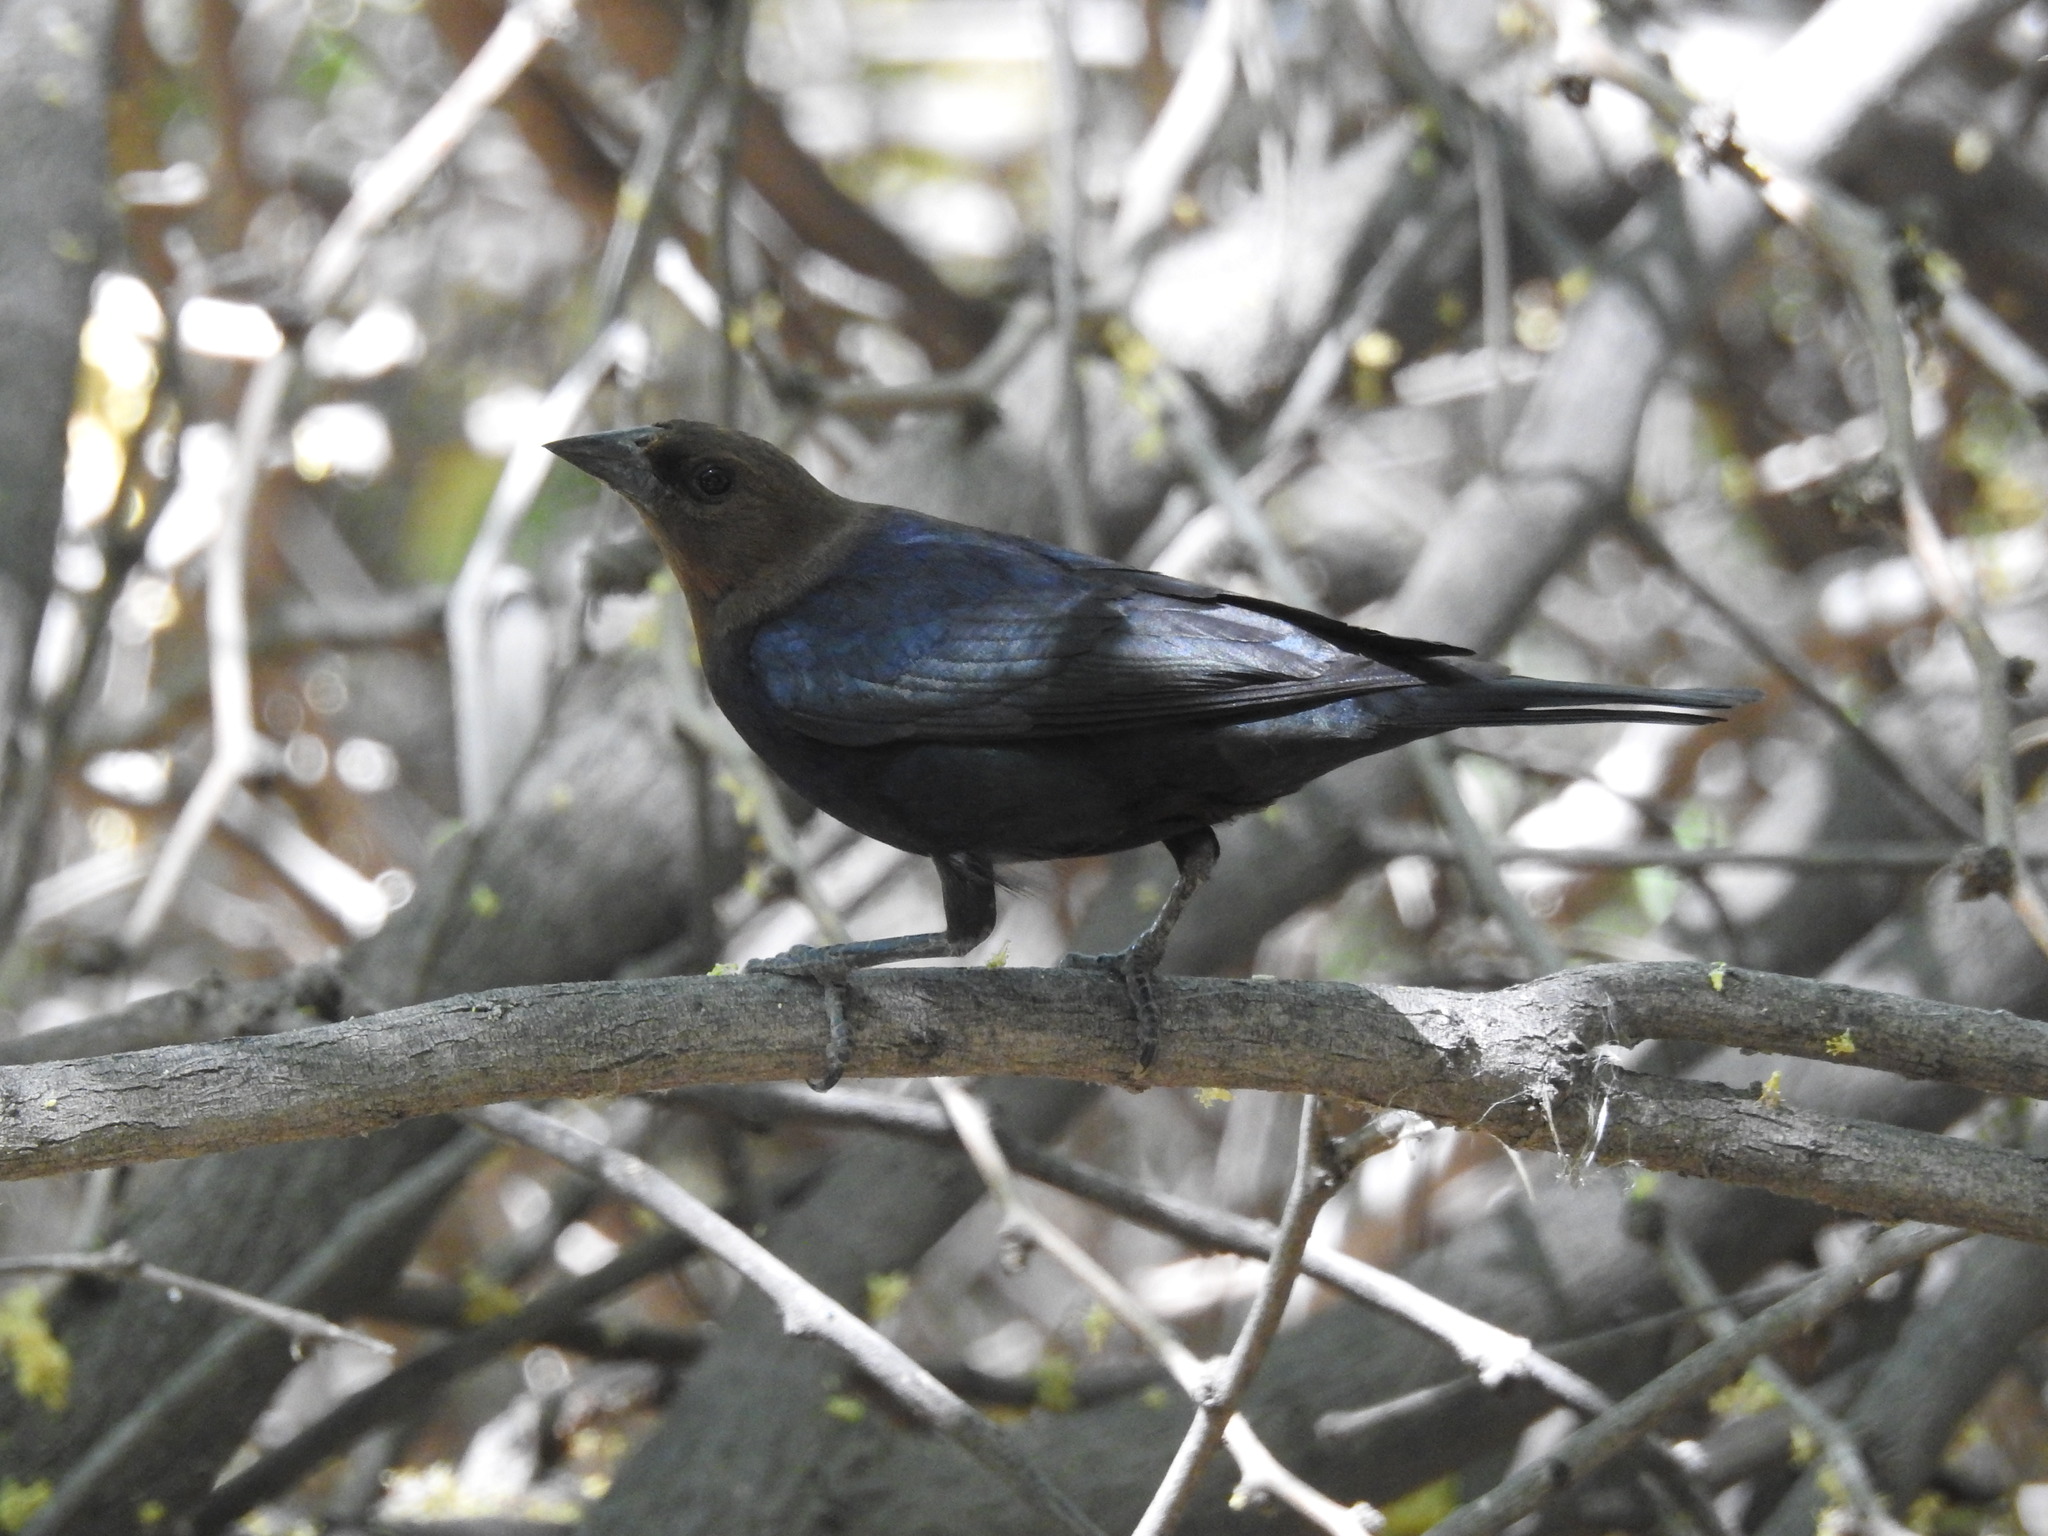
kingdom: Animalia
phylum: Chordata
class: Aves
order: Passeriformes
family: Icteridae
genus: Molothrus
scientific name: Molothrus ater
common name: Brown-headed cowbird
